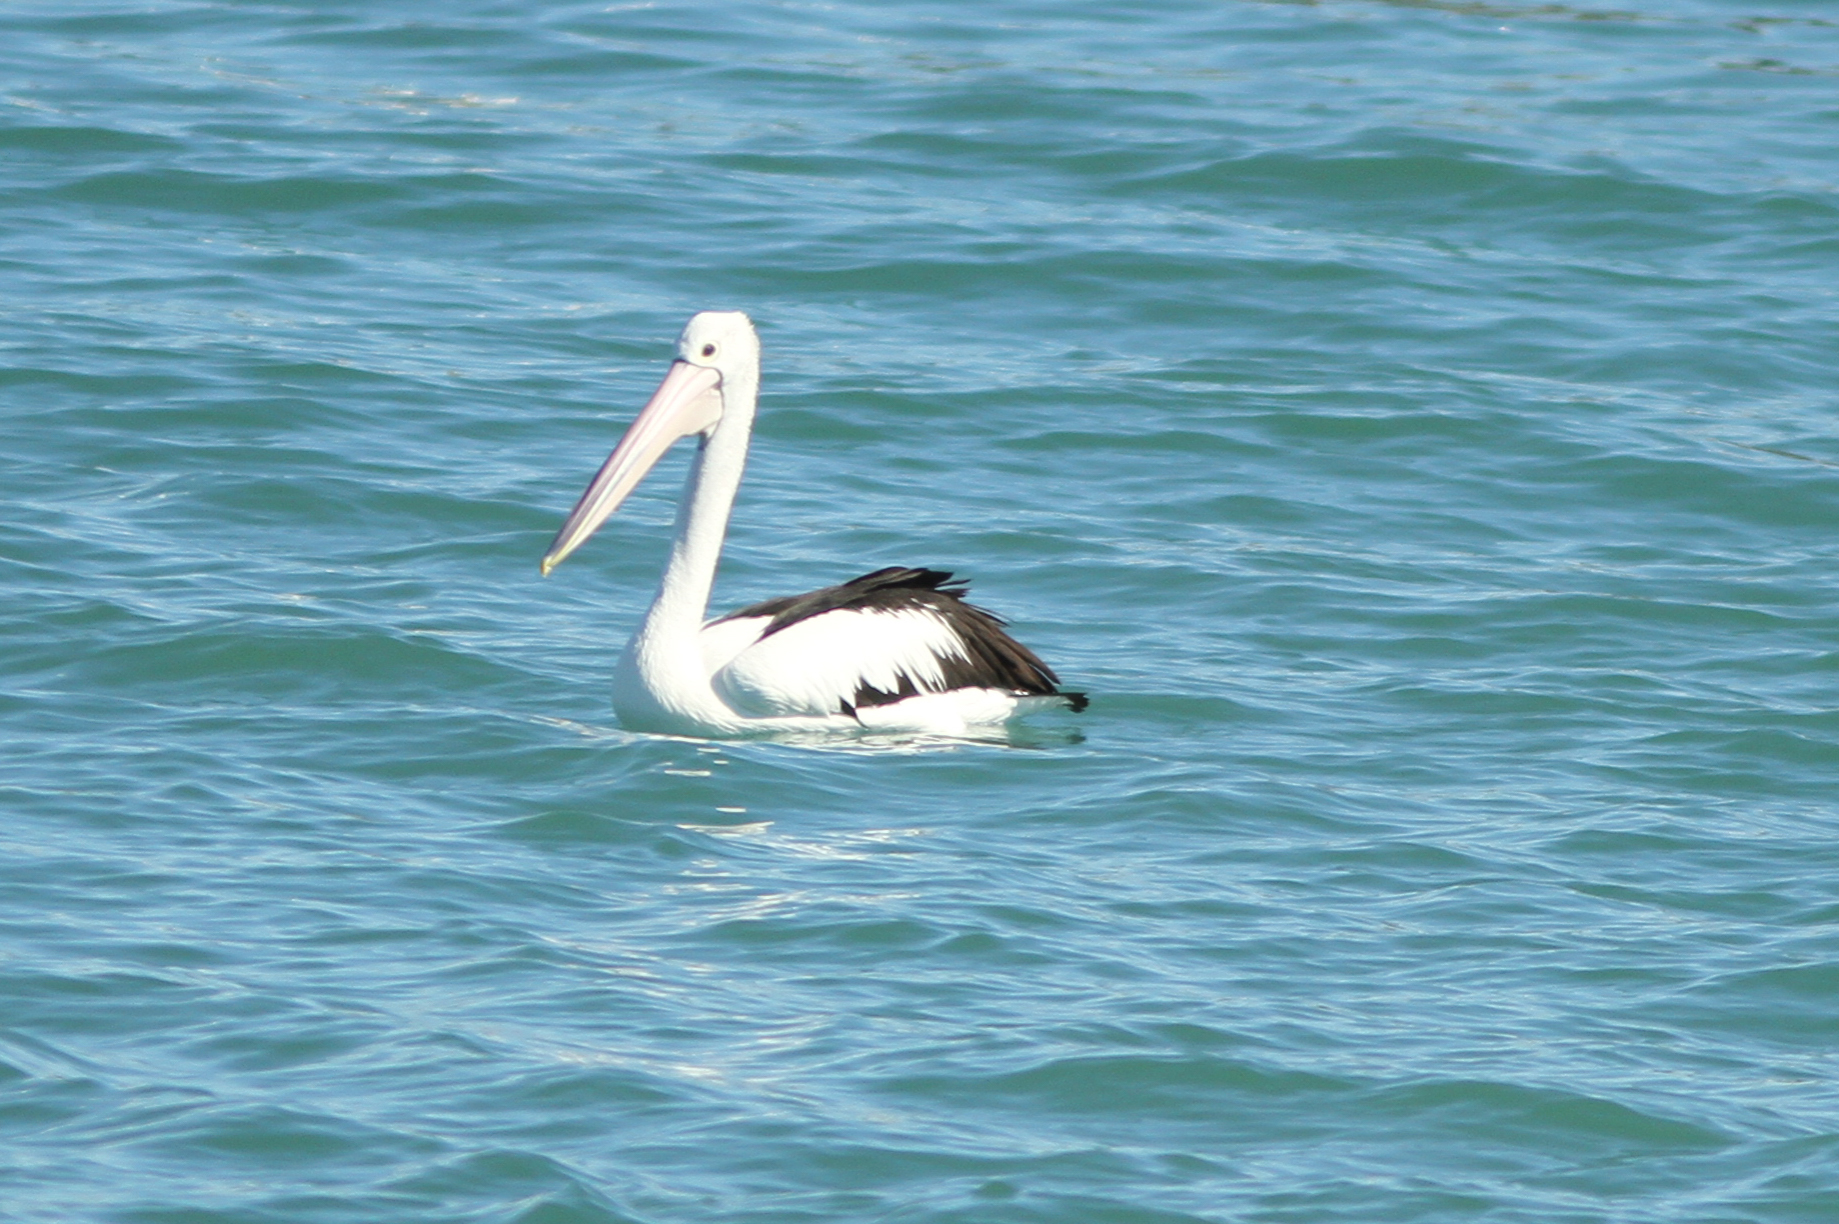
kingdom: Animalia
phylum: Chordata
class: Aves
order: Pelecaniformes
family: Pelecanidae
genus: Pelecanus
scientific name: Pelecanus conspicillatus
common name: Australian pelican
